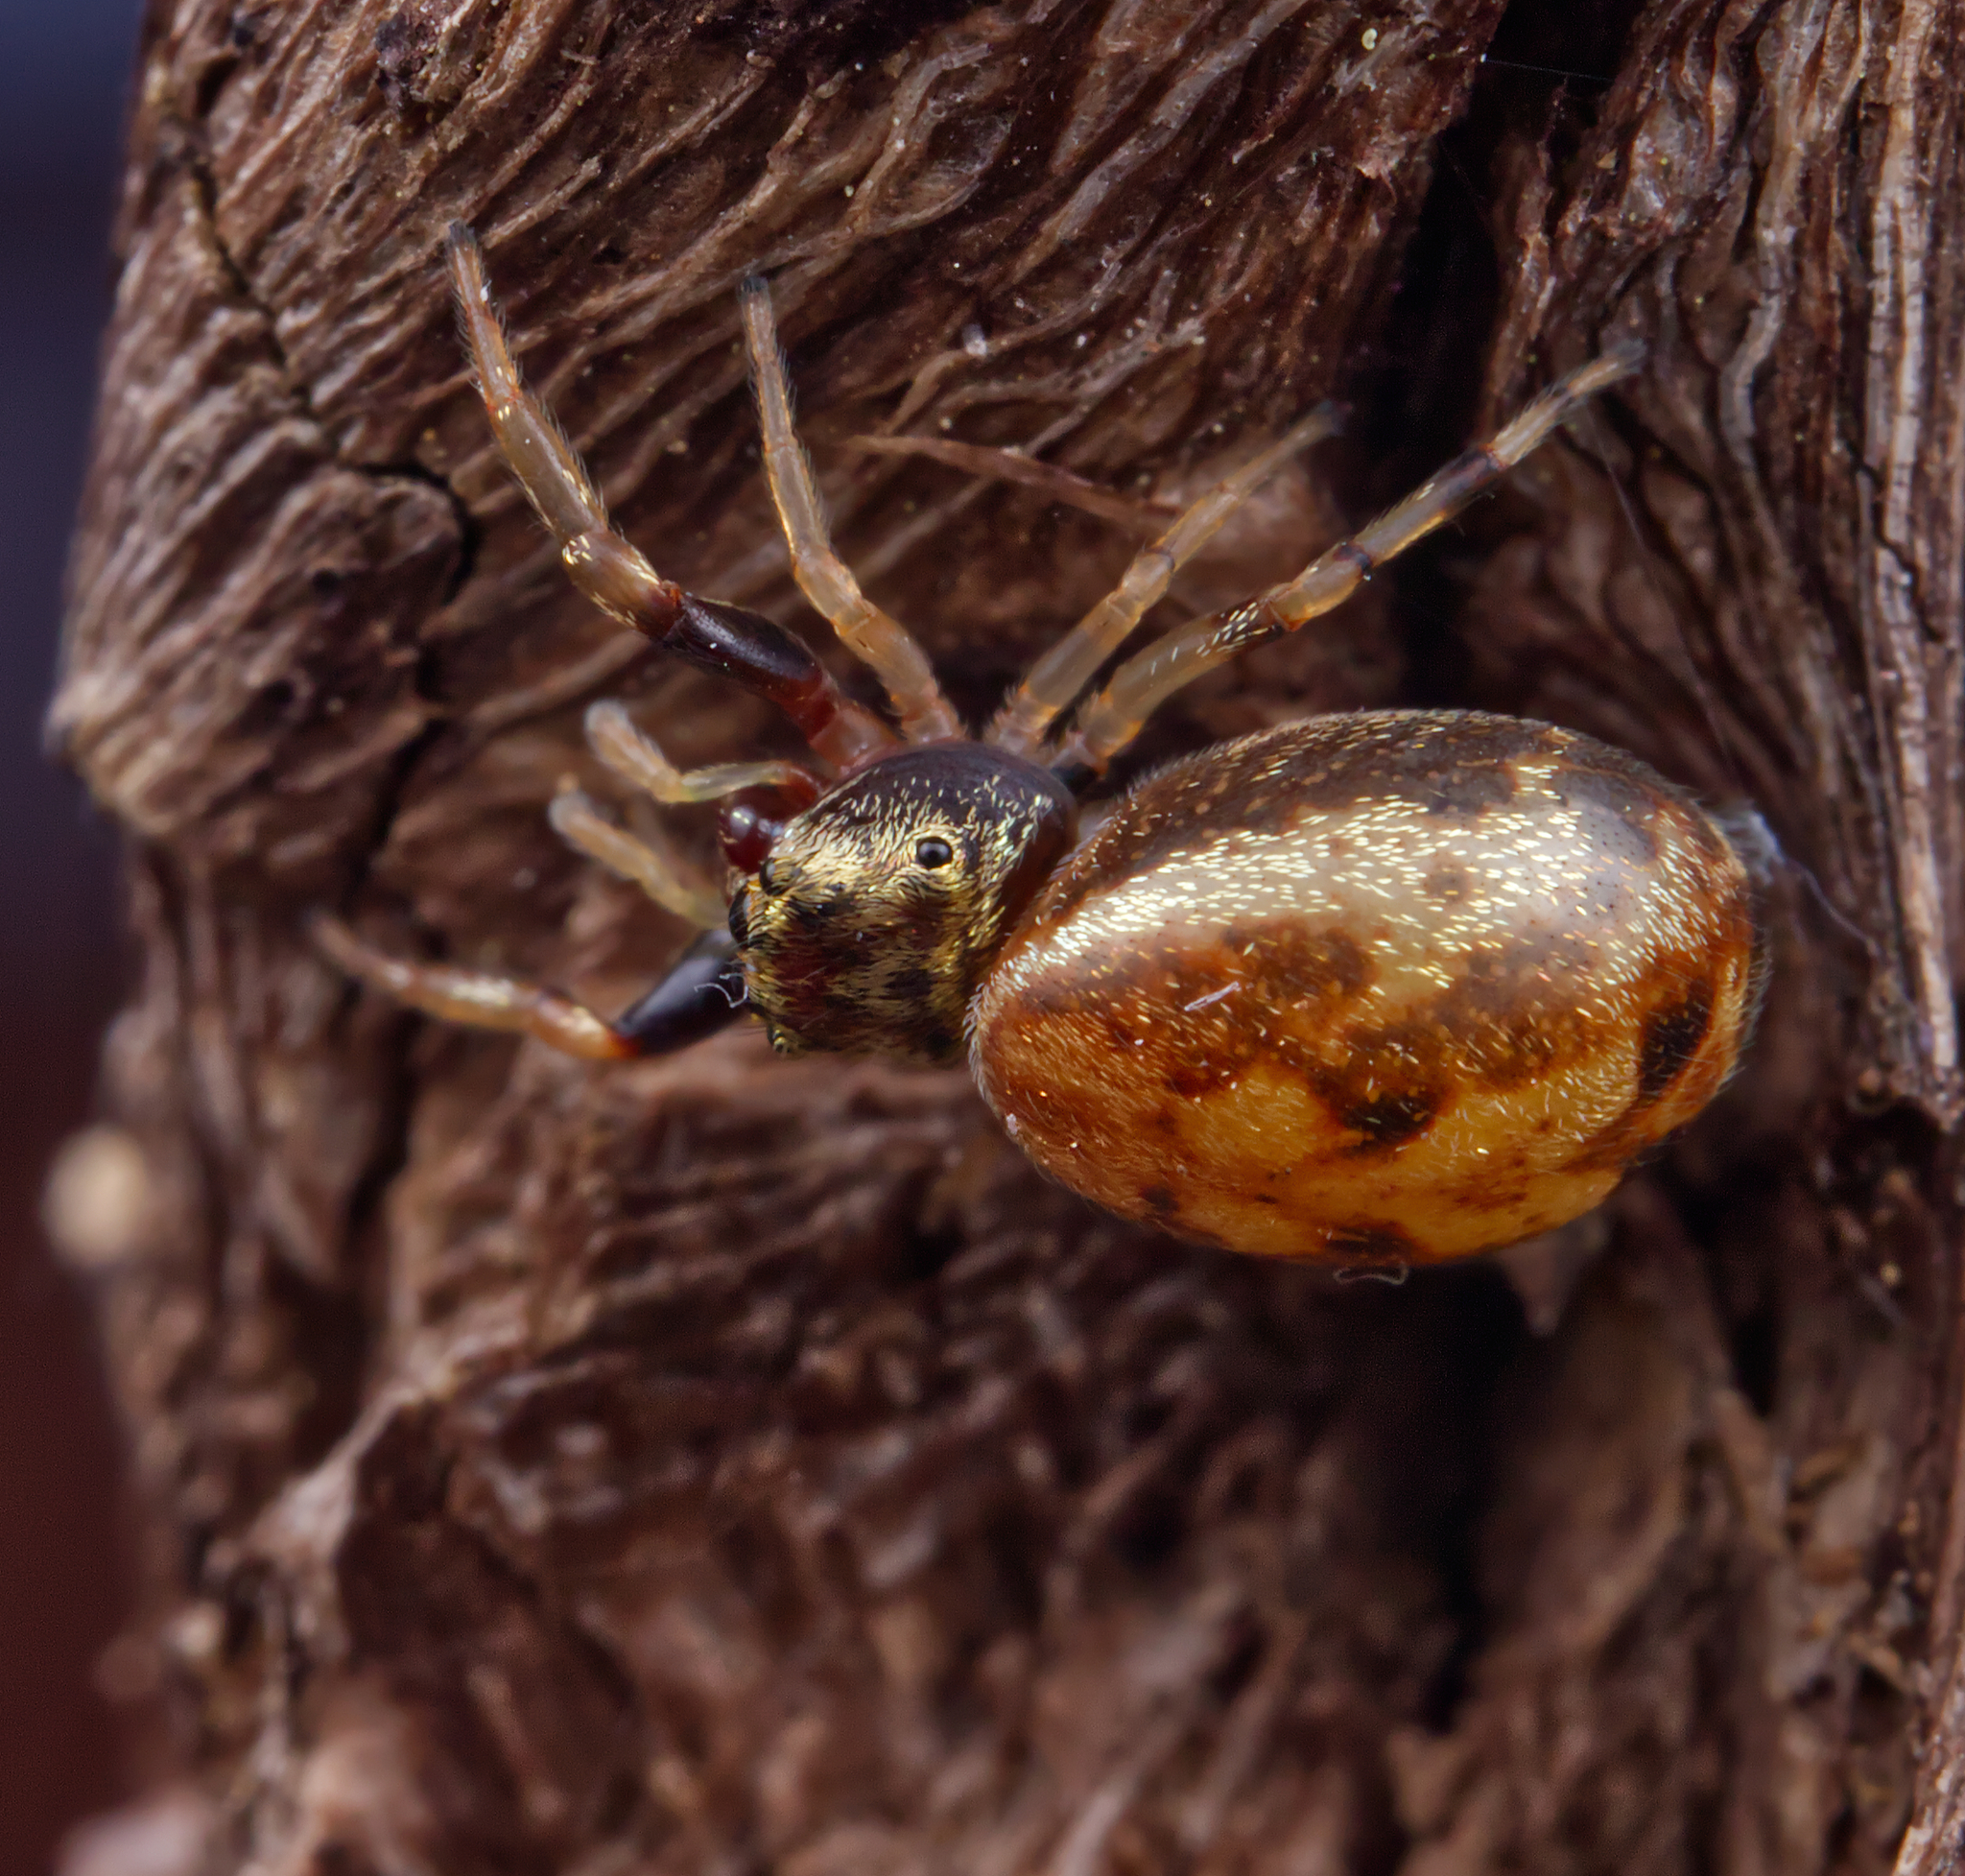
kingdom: Animalia
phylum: Arthropoda
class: Arachnida
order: Araneae
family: Salticidae
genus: Zygoballus
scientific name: Zygoballus rufipes
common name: Jumping spiders
